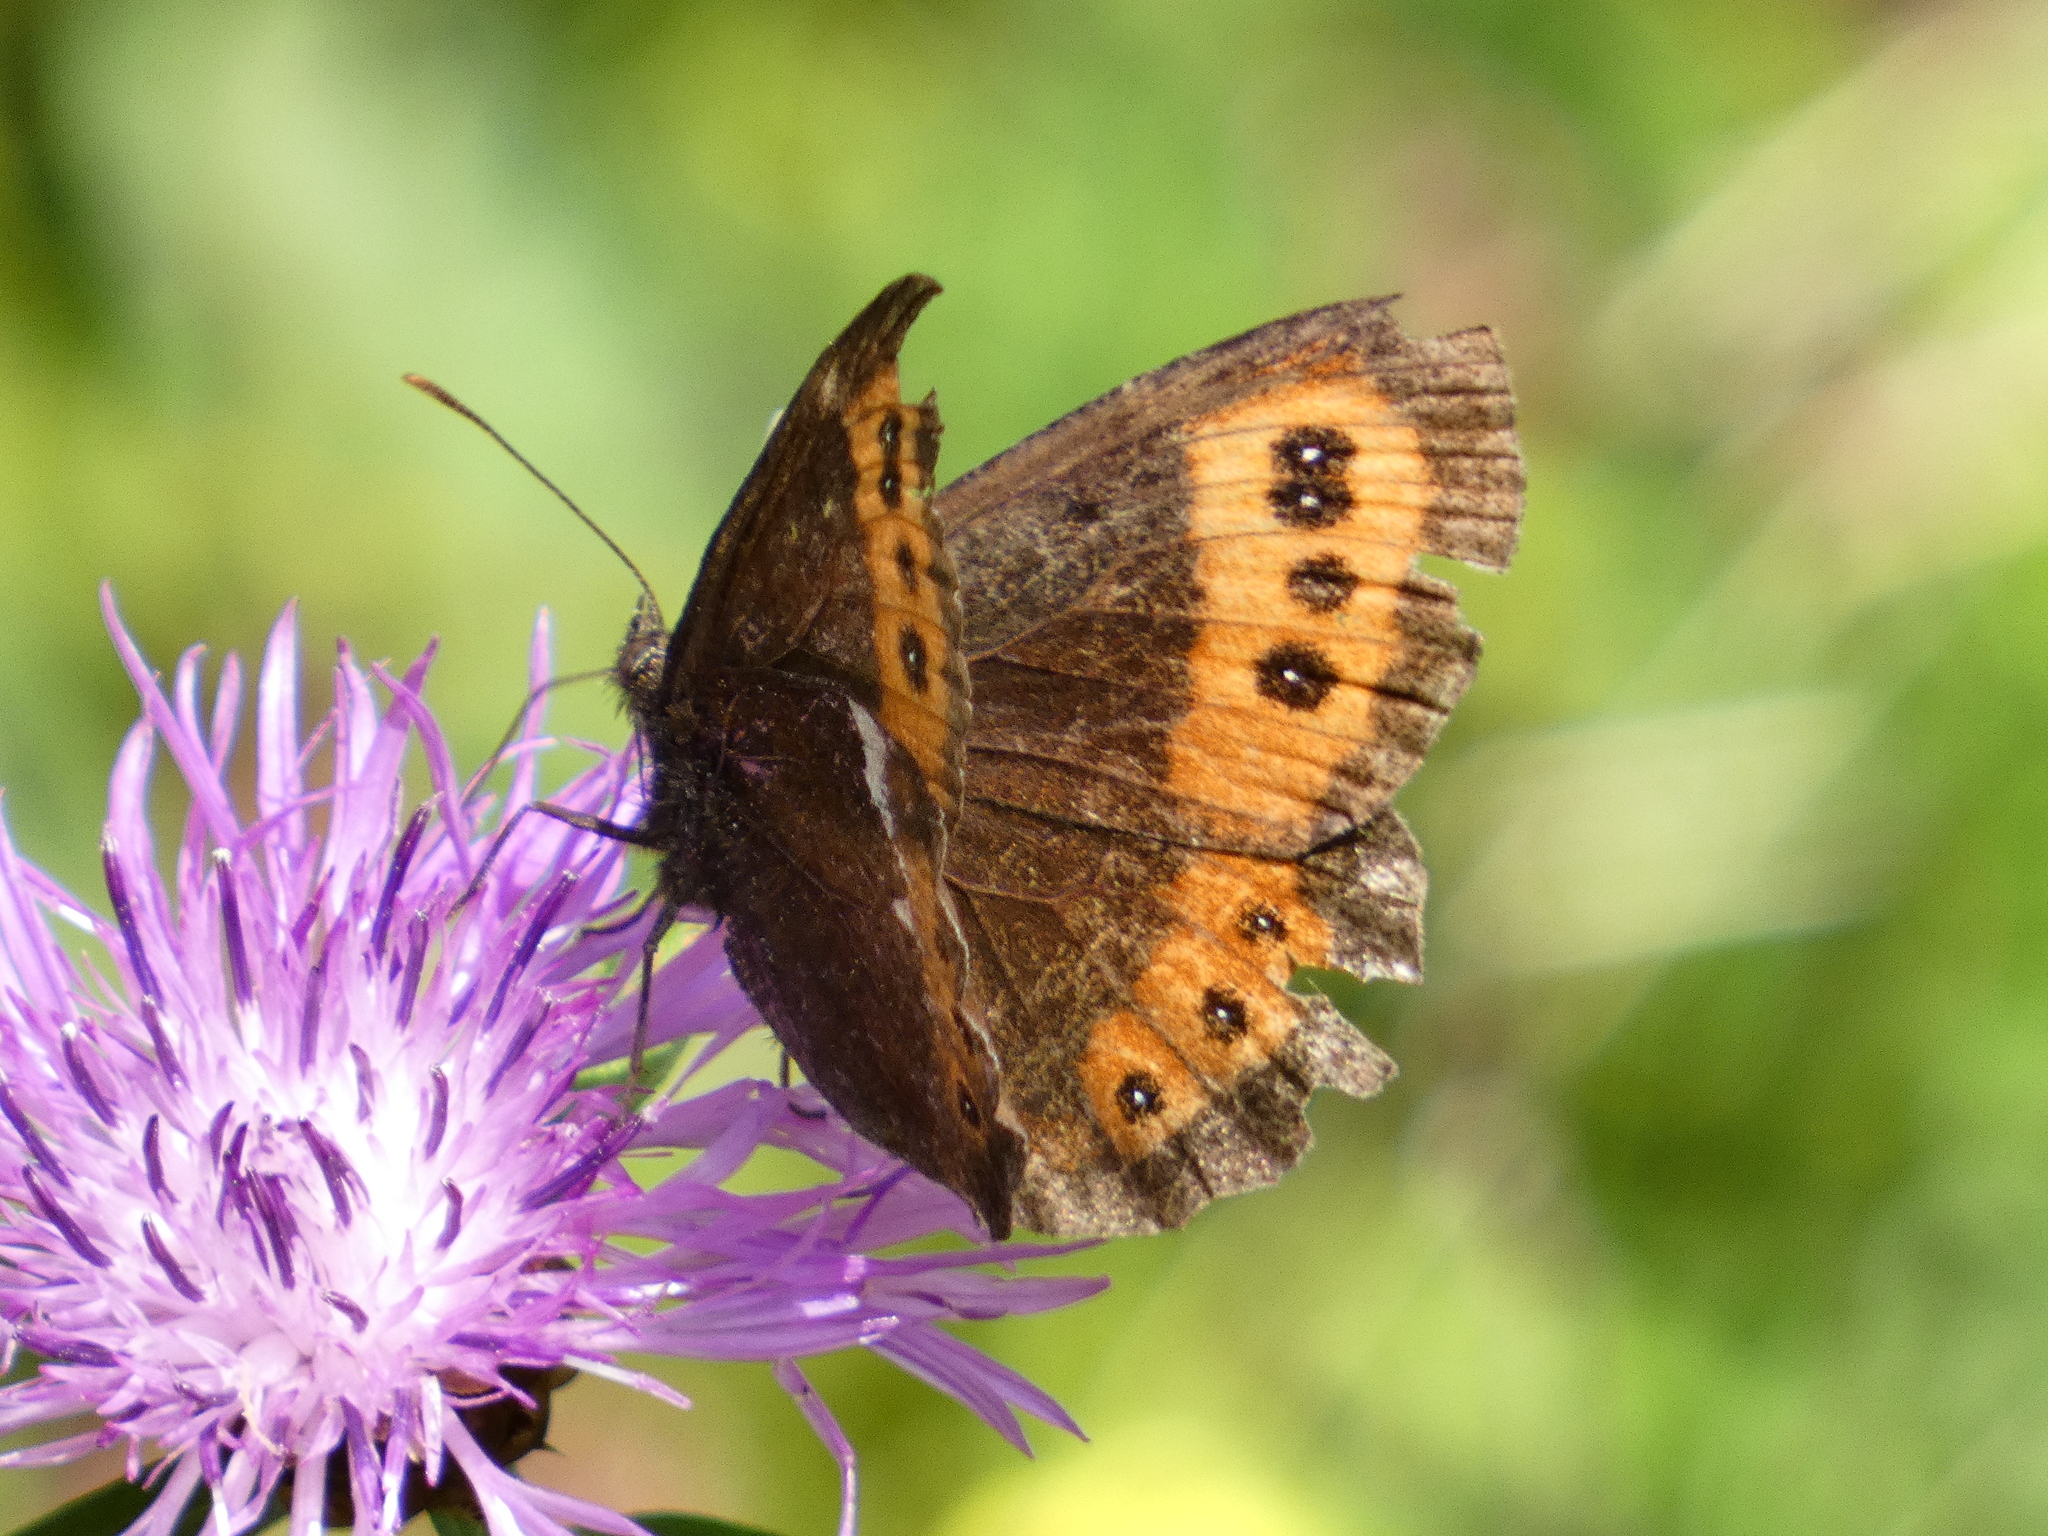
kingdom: Animalia
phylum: Arthropoda
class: Insecta
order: Lepidoptera
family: Nymphalidae
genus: Erebia
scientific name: Erebia ligea
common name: Arran brown
